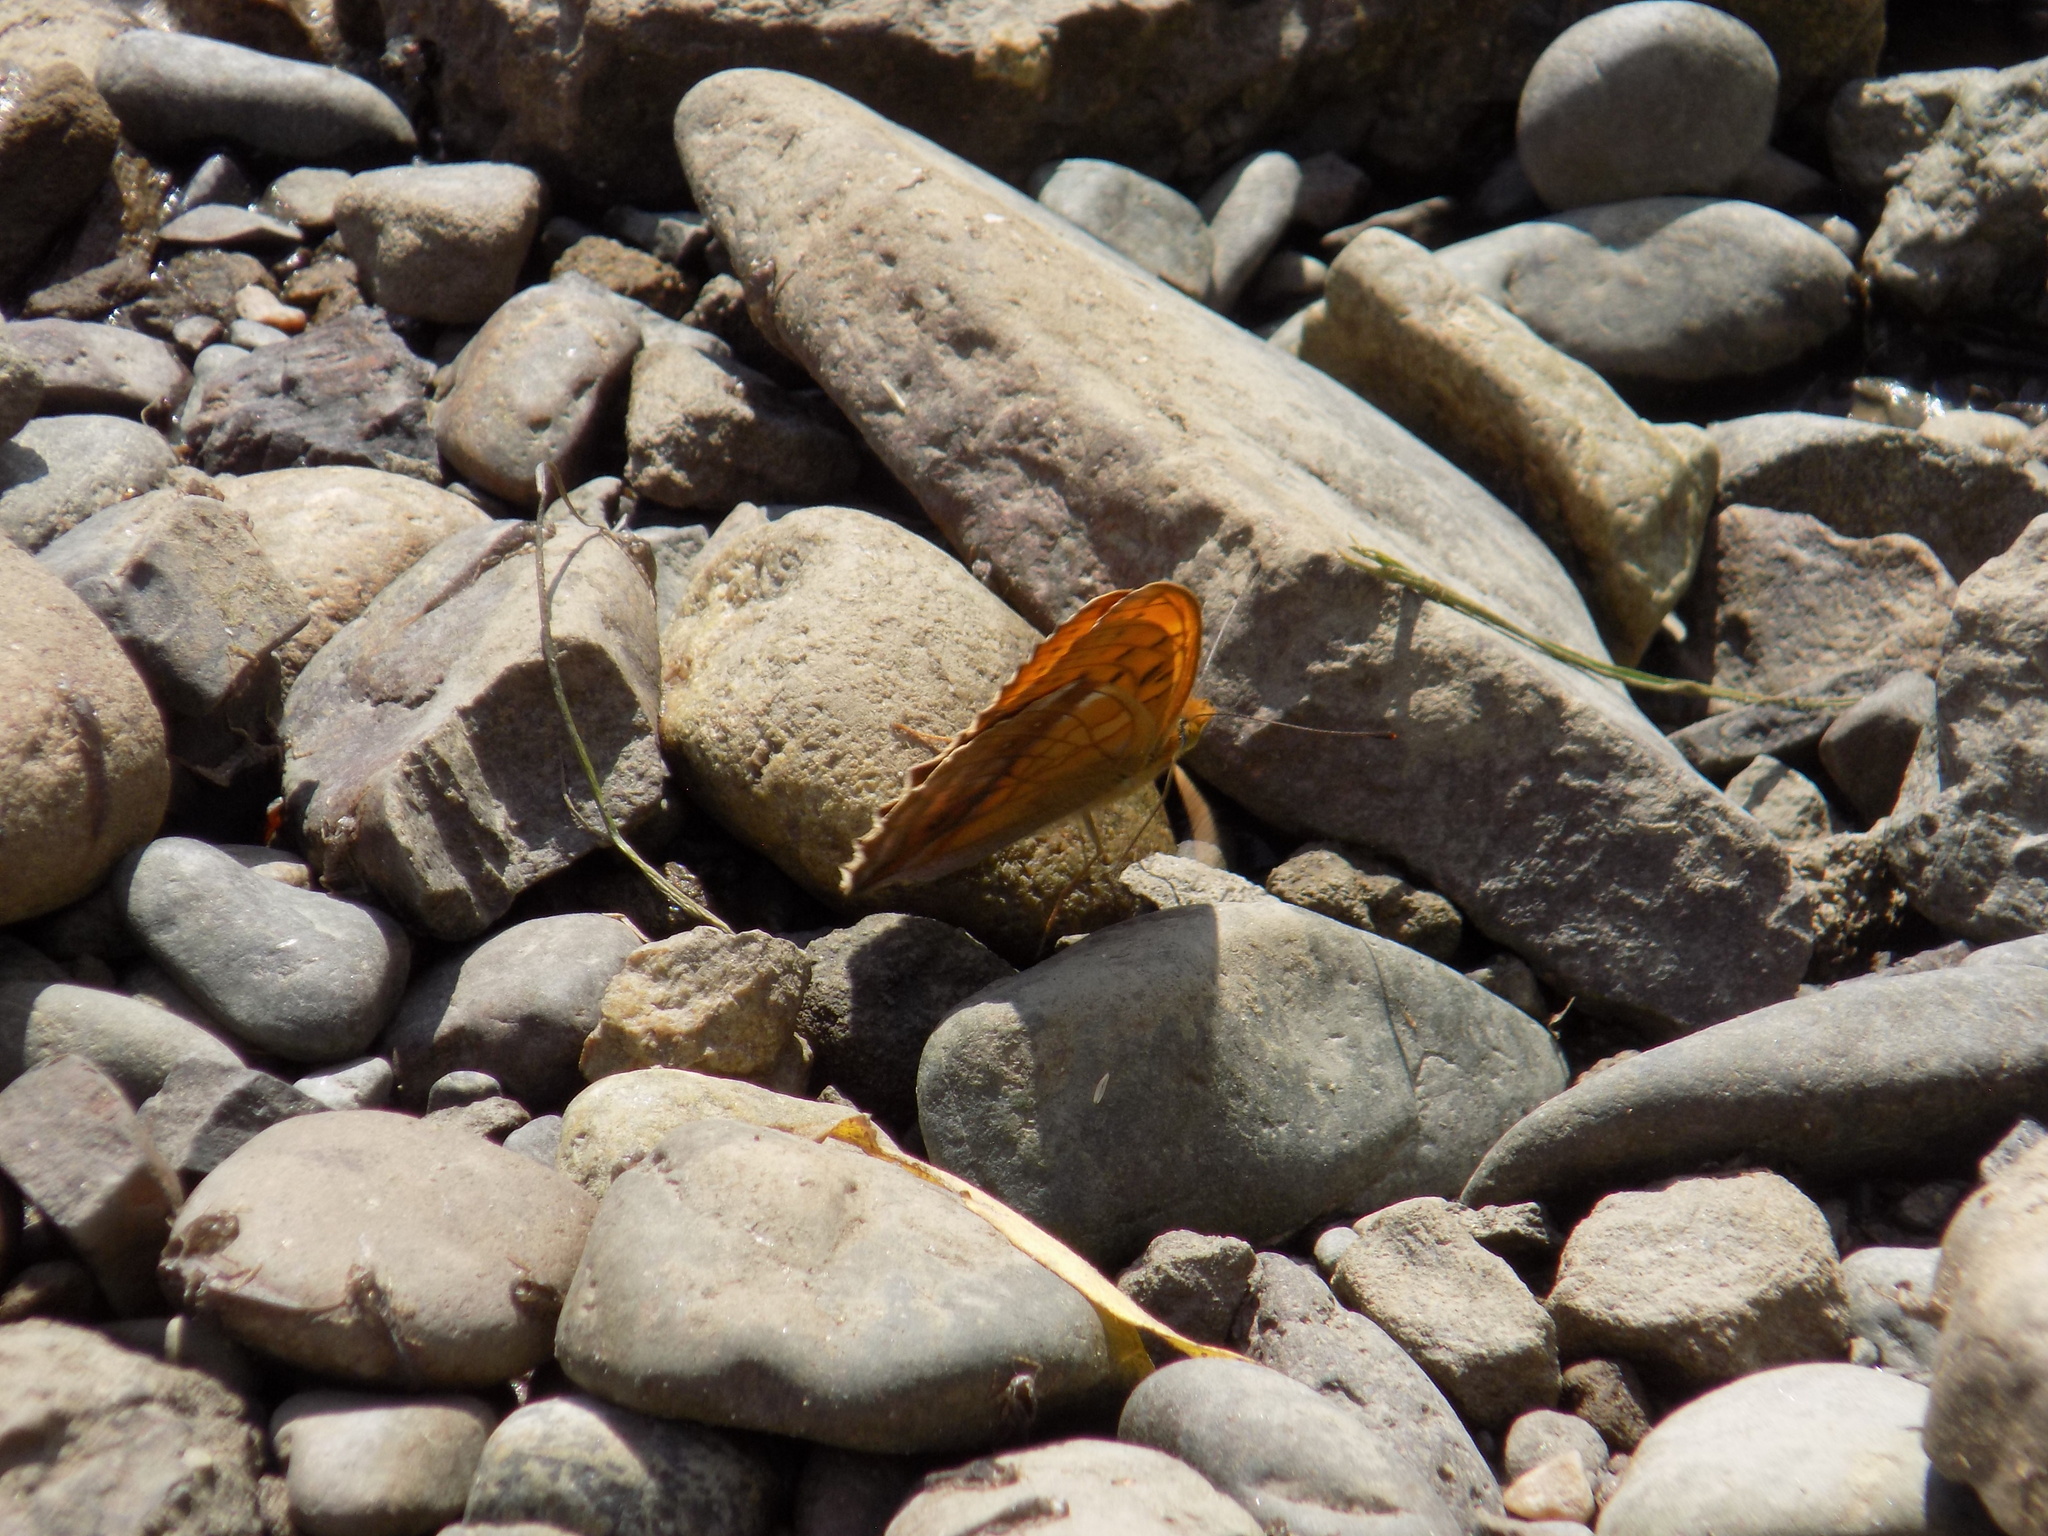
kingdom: Animalia
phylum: Arthropoda
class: Insecta
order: Lepidoptera
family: Nymphalidae
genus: Damora
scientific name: Damora sagana
